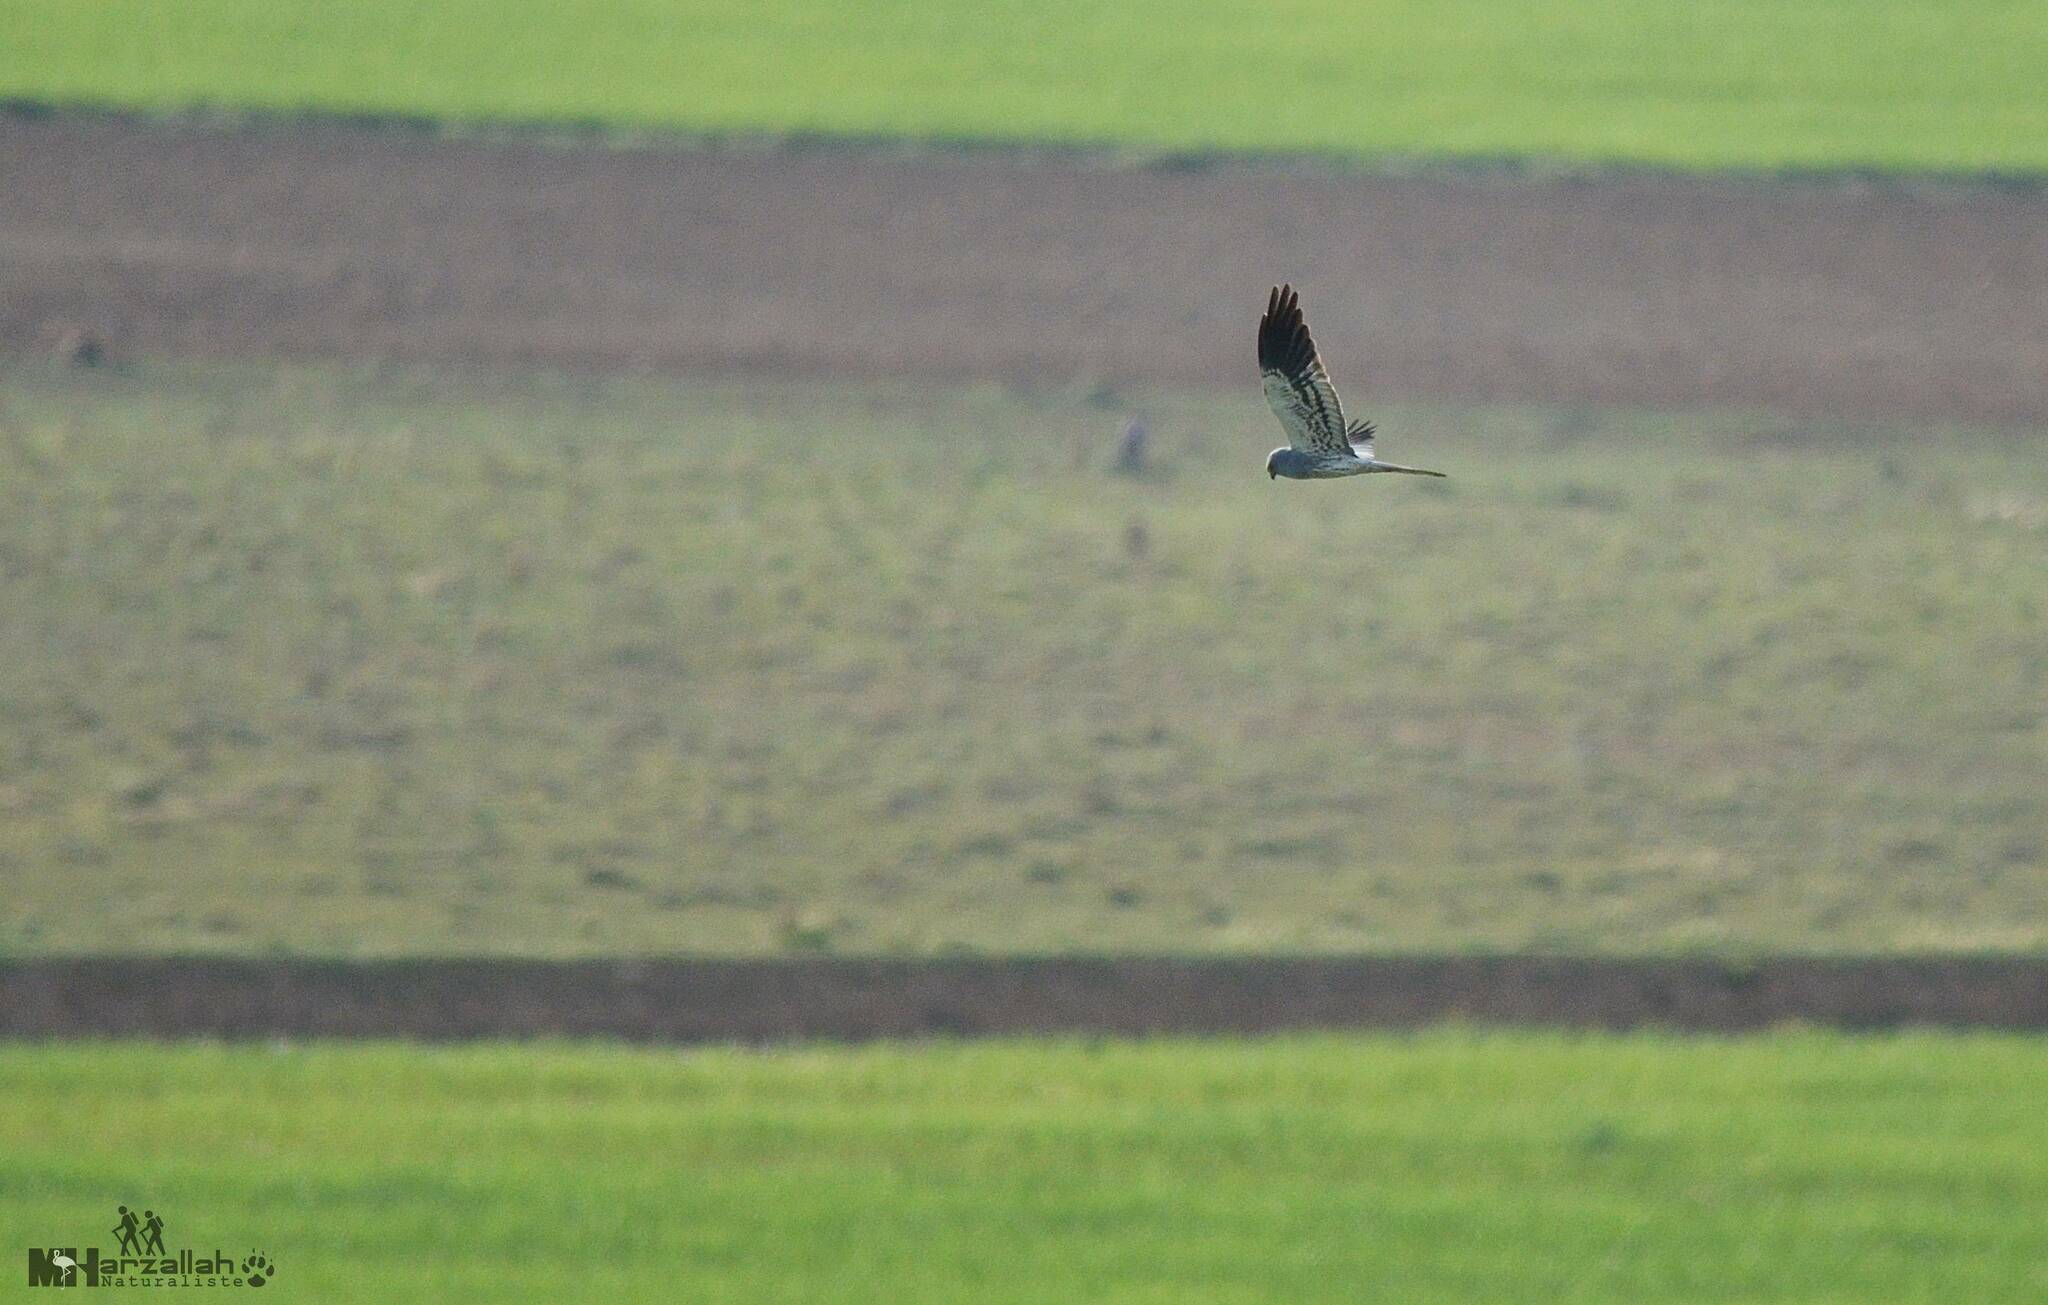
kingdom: Animalia
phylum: Chordata
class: Aves
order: Accipitriformes
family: Accipitridae
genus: Circus
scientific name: Circus pygargus
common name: Montagu's harrier
